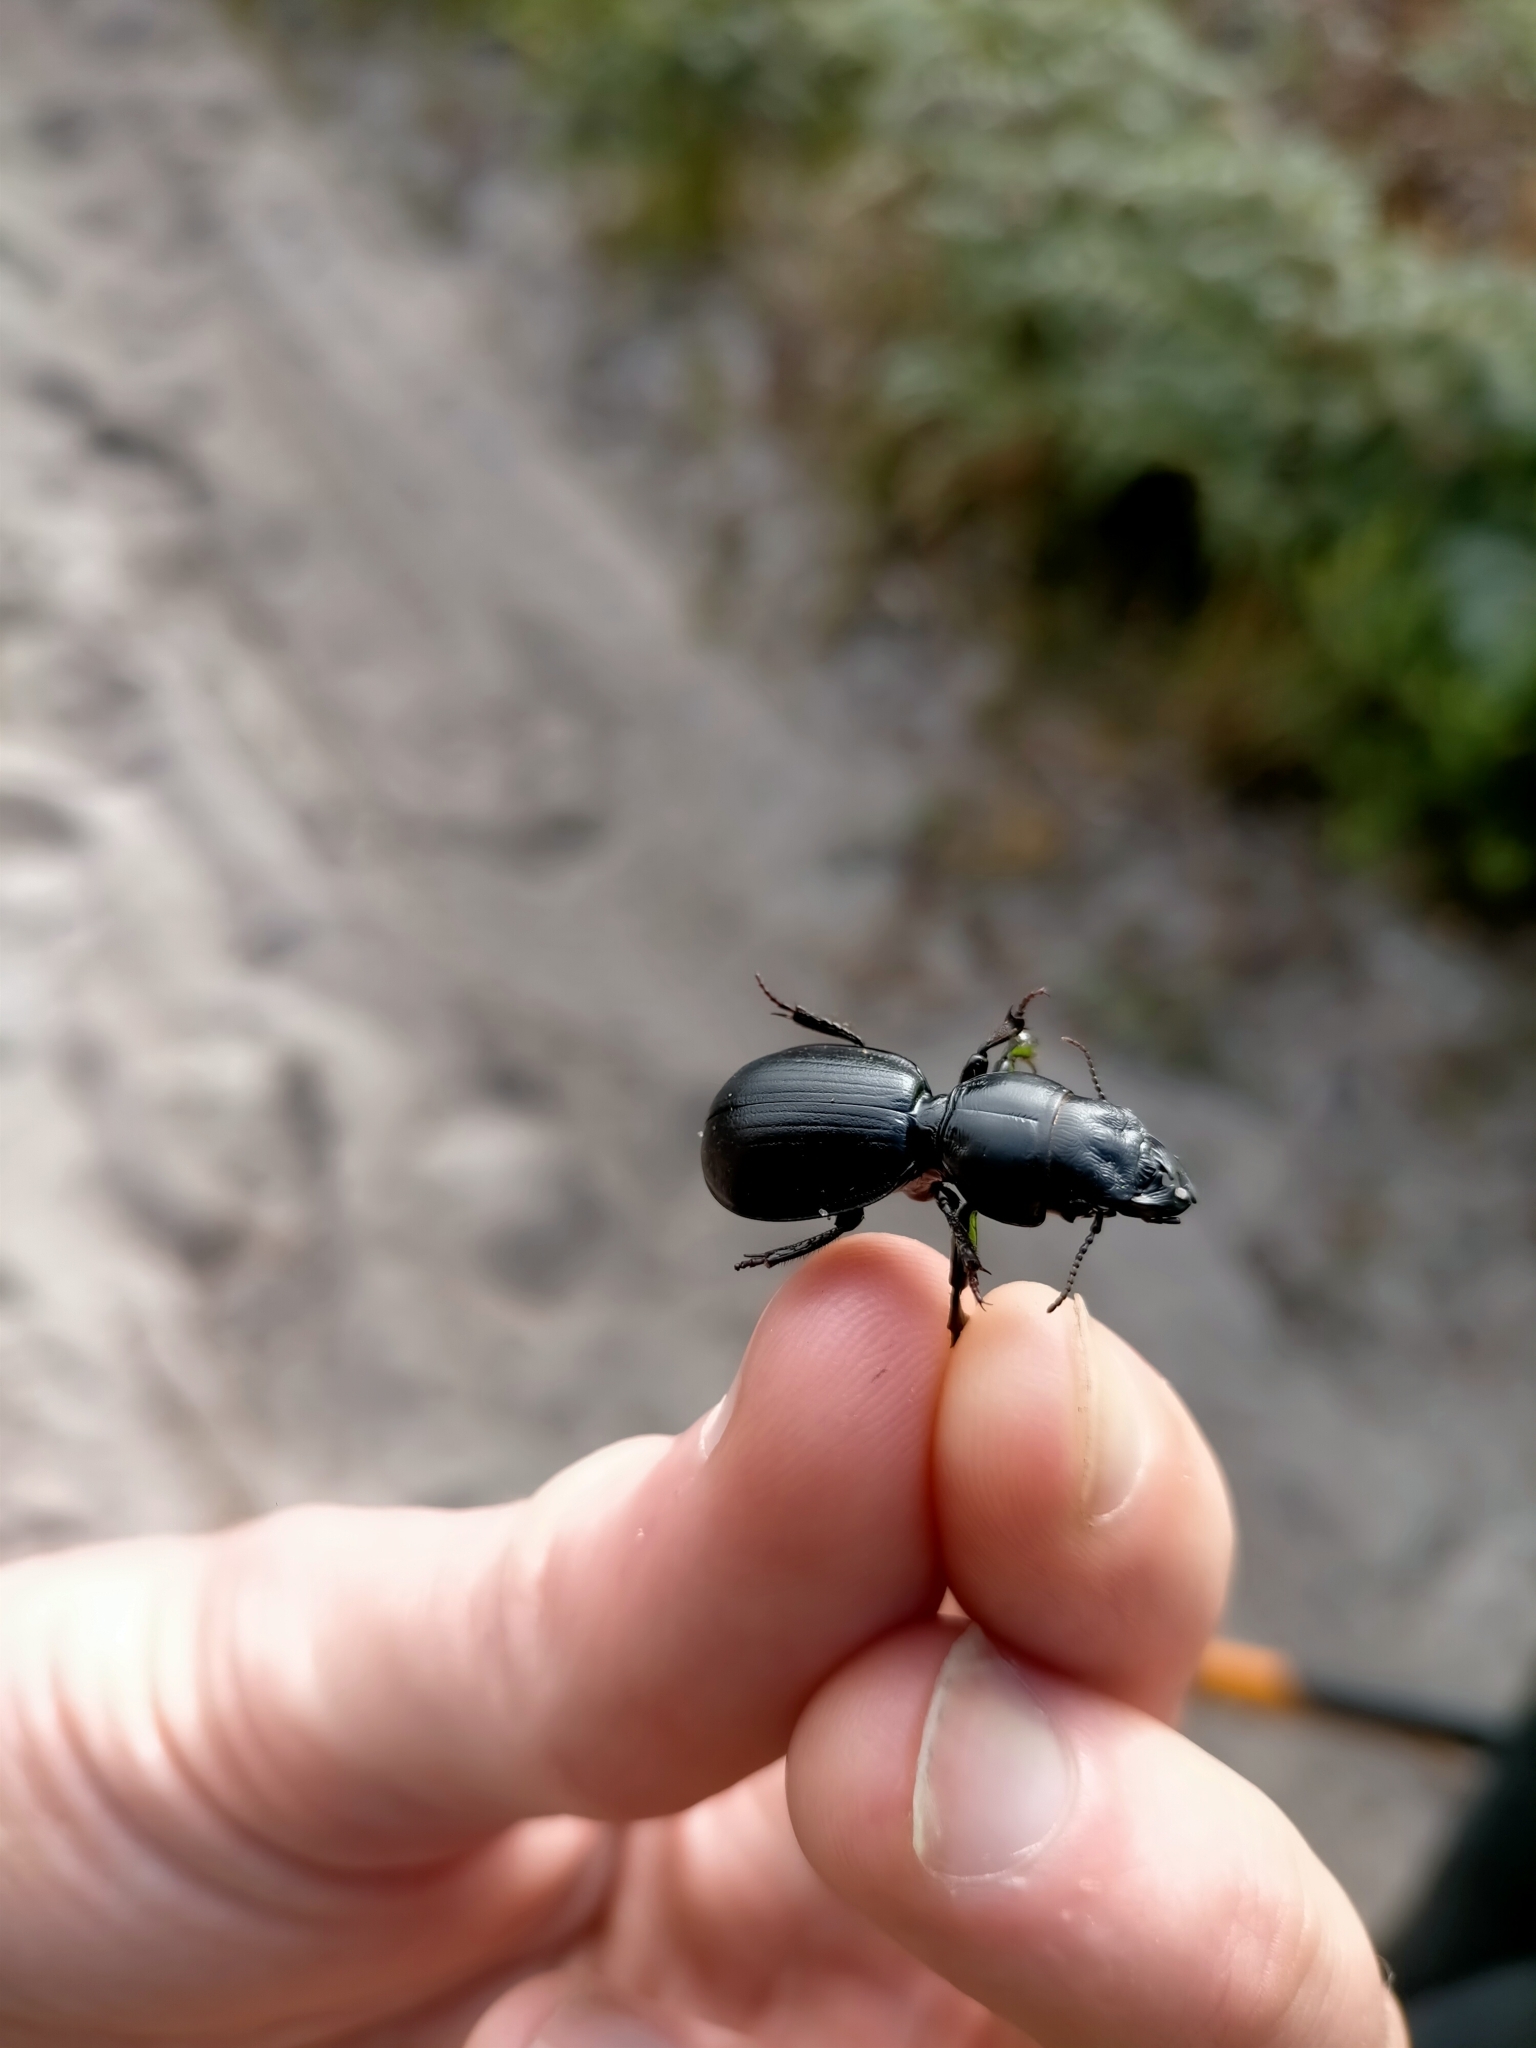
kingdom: Animalia
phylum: Arthropoda
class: Insecta
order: Coleoptera
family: Carabidae
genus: Scaraphites
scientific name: Scaraphites rotundipennis
